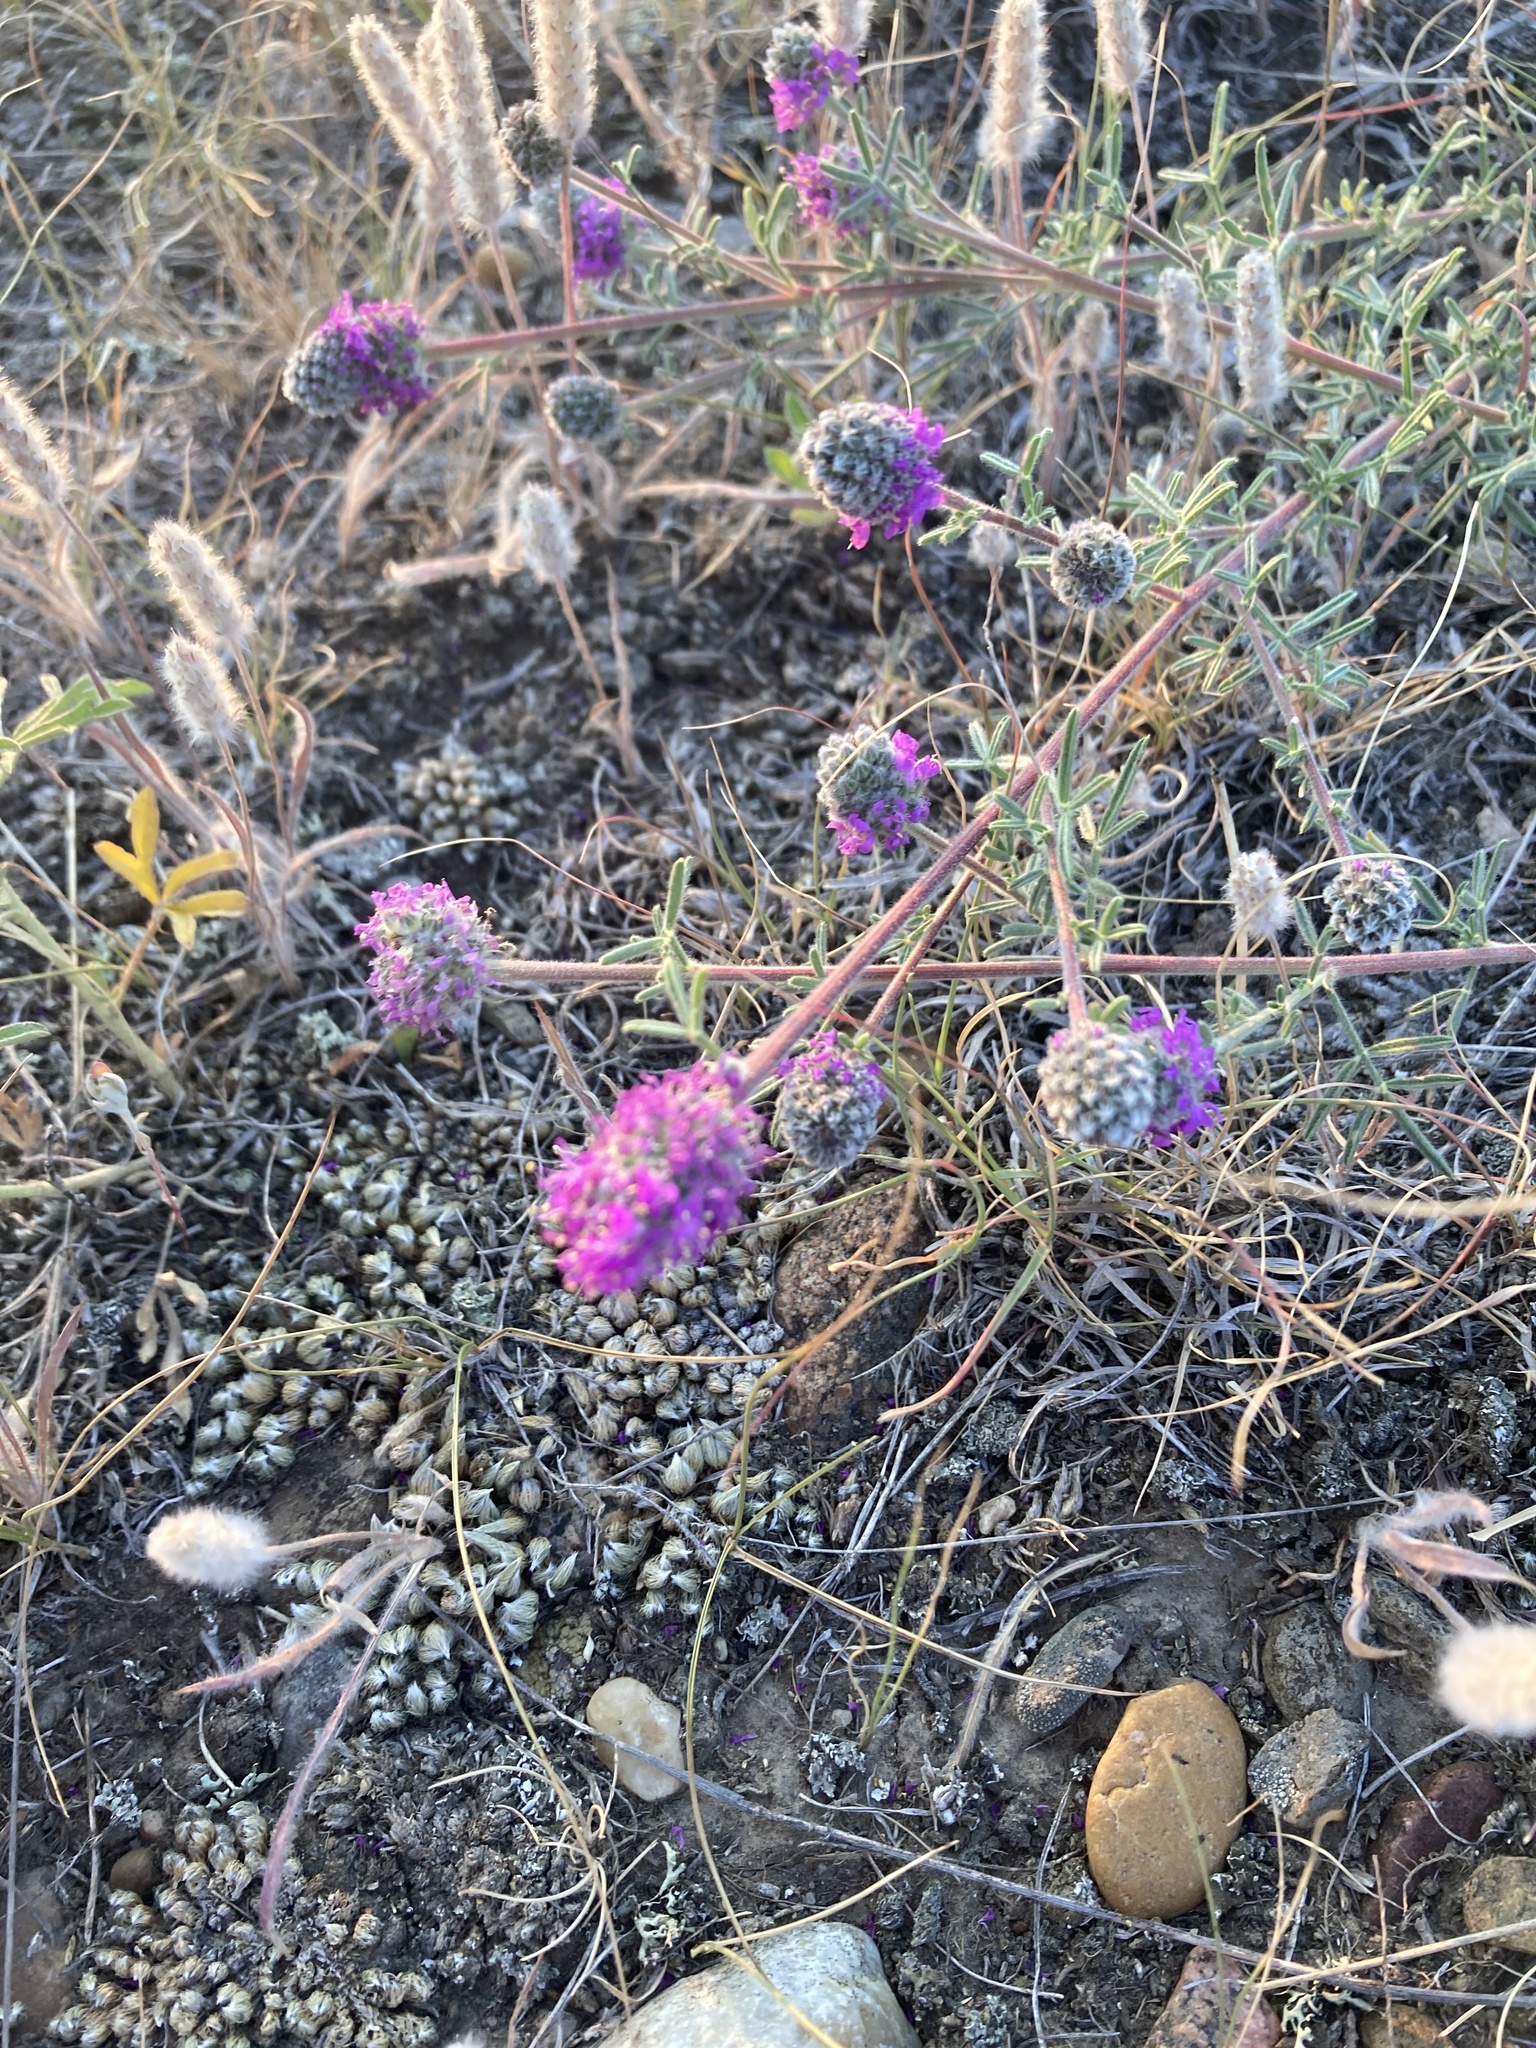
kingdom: Plantae
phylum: Tracheophyta
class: Magnoliopsida
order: Fabales
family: Fabaceae
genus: Dalea
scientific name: Dalea purpurea
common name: Purple prairie-clover
